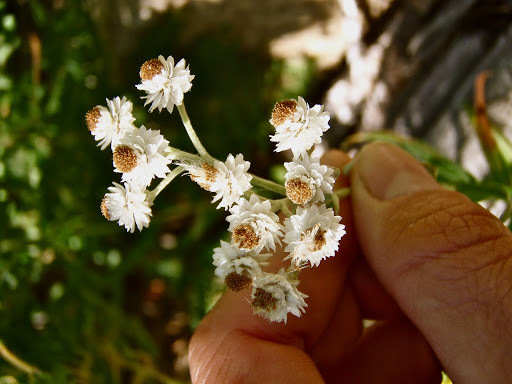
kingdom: Plantae
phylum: Tracheophyta
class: Magnoliopsida
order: Asterales
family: Asteraceae
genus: Anaphalis
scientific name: Anaphalis margaritacea
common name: Pearly everlasting
